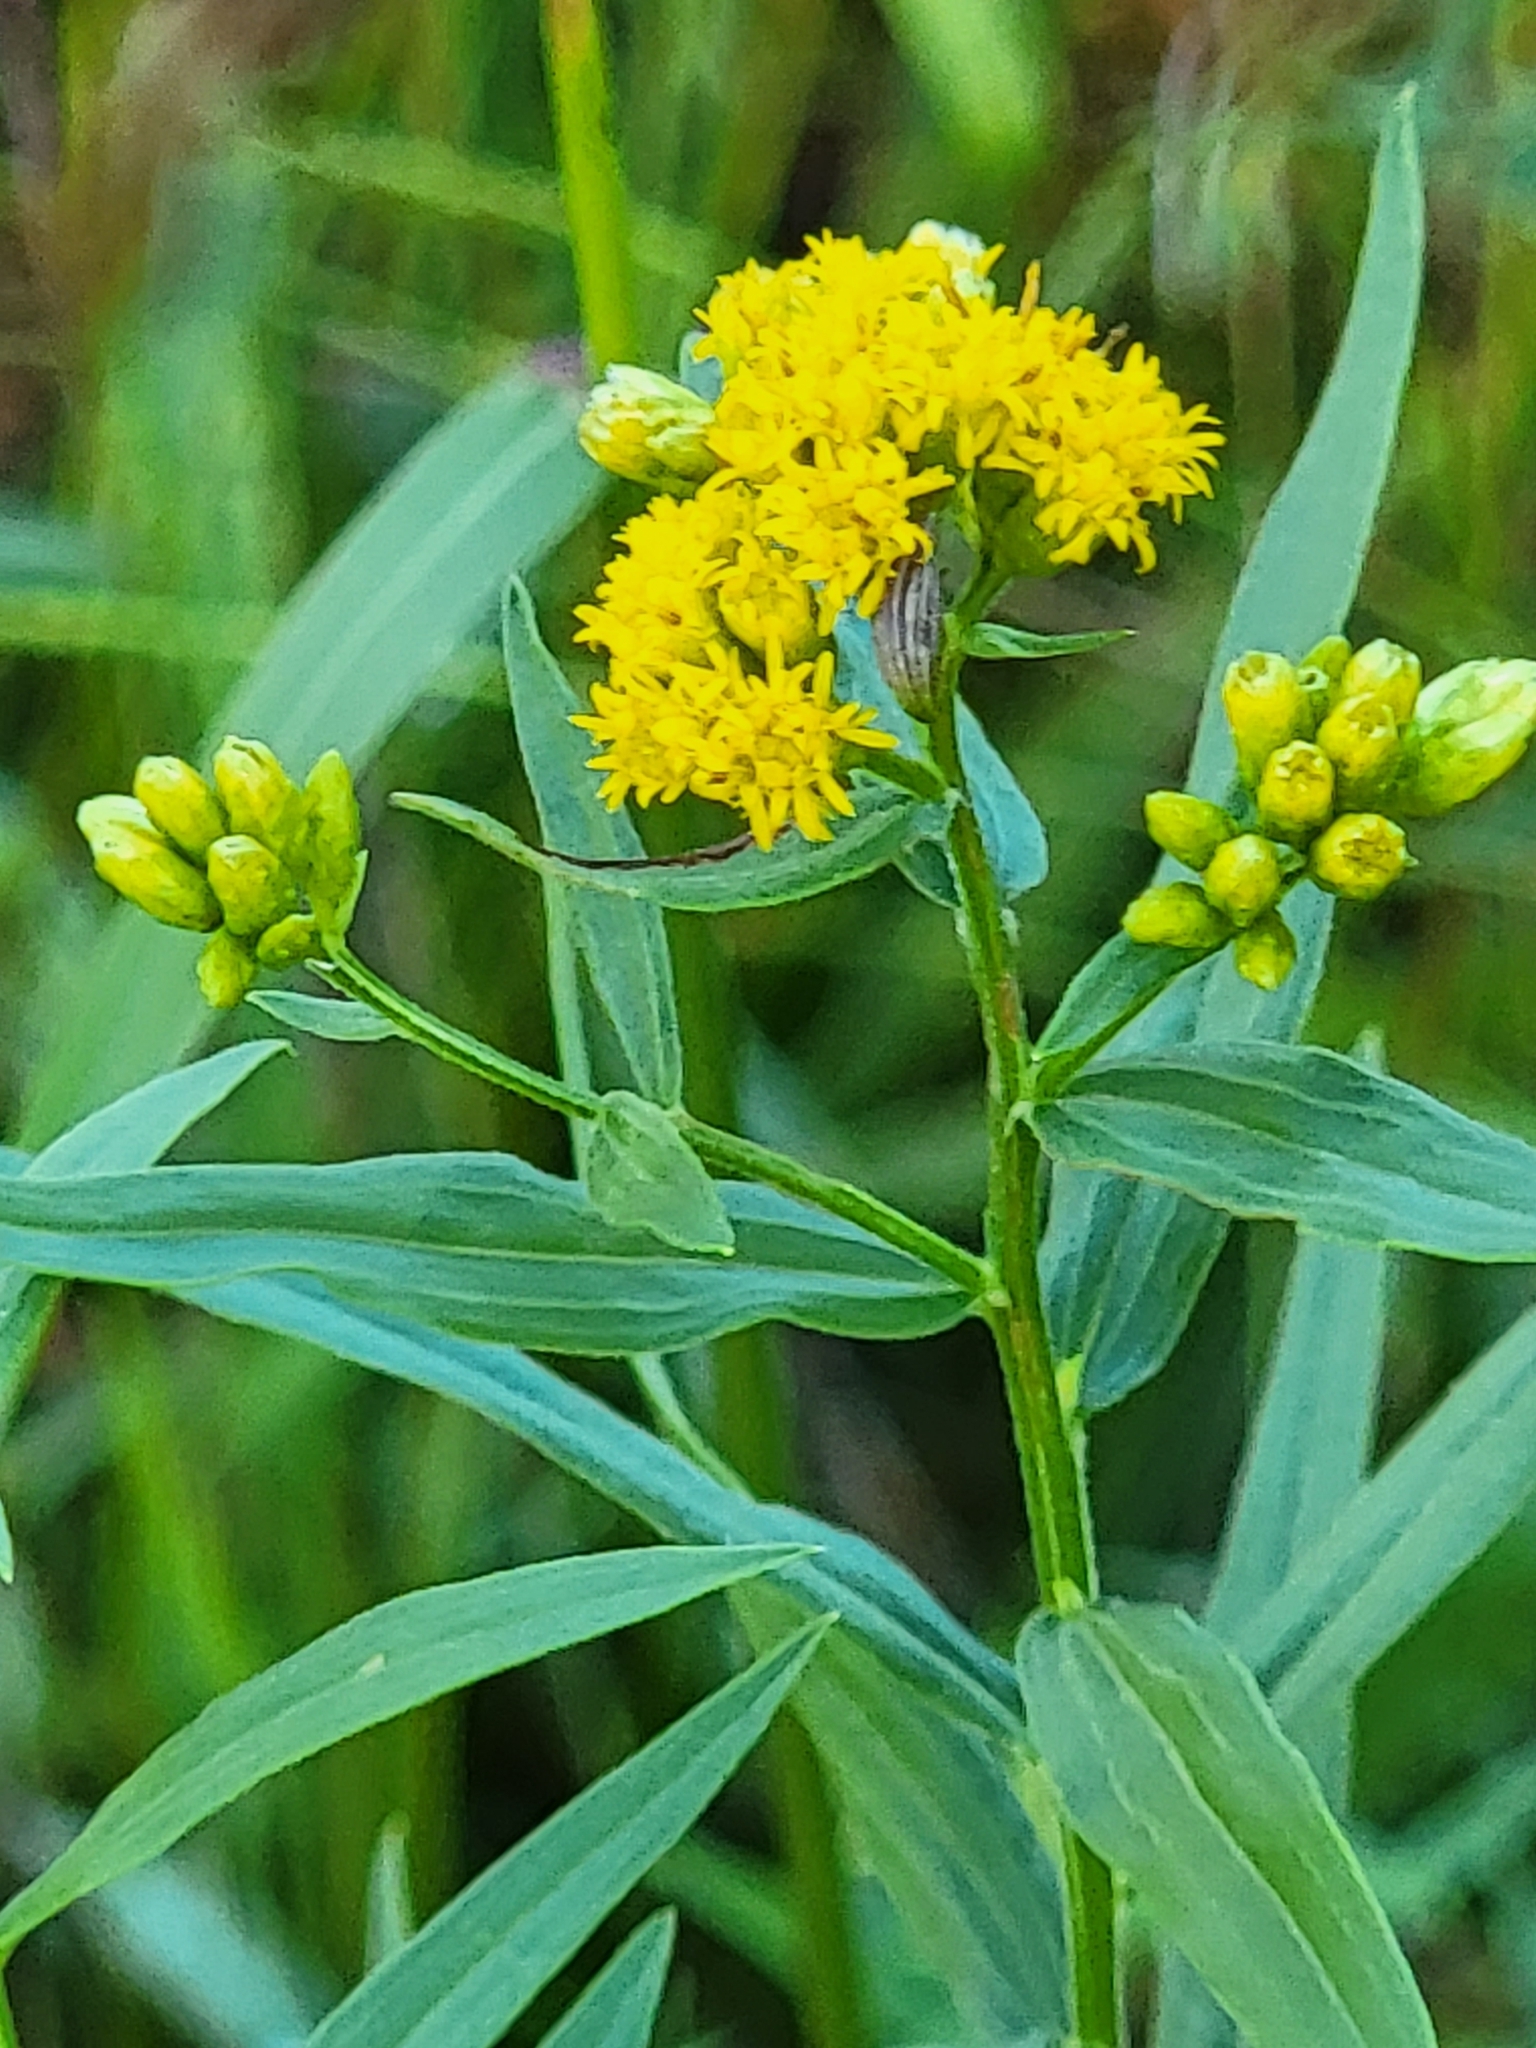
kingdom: Plantae
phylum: Tracheophyta
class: Magnoliopsida
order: Asterales
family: Asteraceae
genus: Euthamia
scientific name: Euthamia graminifolia
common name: Common goldentop
